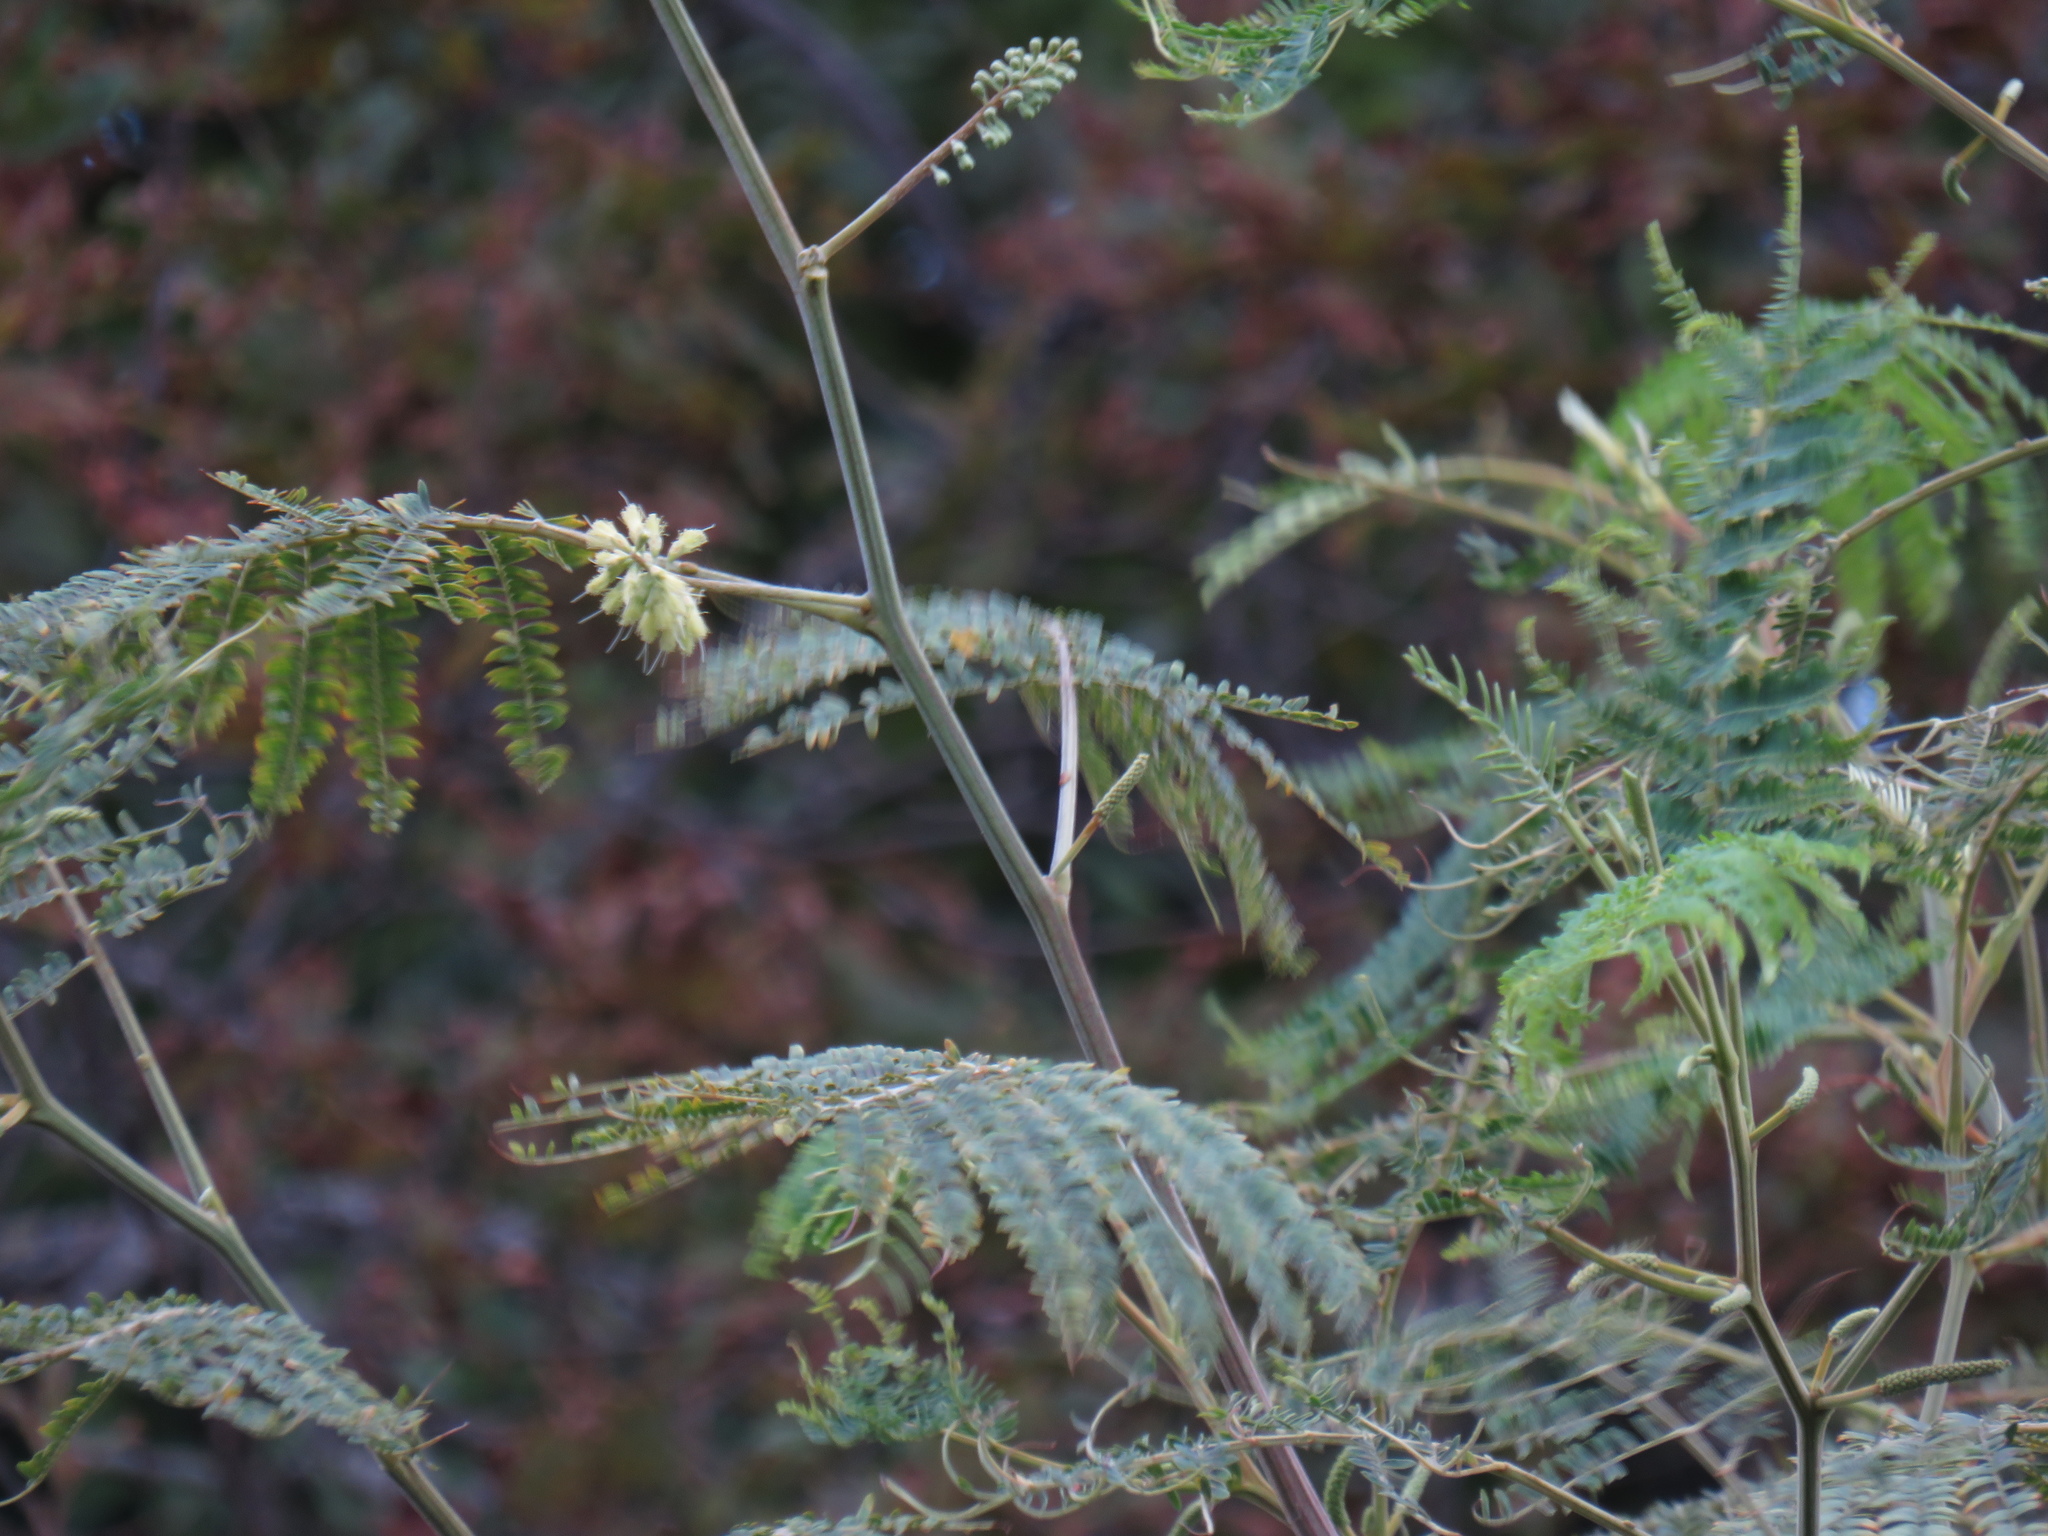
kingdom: Plantae
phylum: Tracheophyta
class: Magnoliopsida
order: Fabales
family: Fabaceae
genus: Paraserianthes
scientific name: Paraserianthes lophantha
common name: Plume albizia
